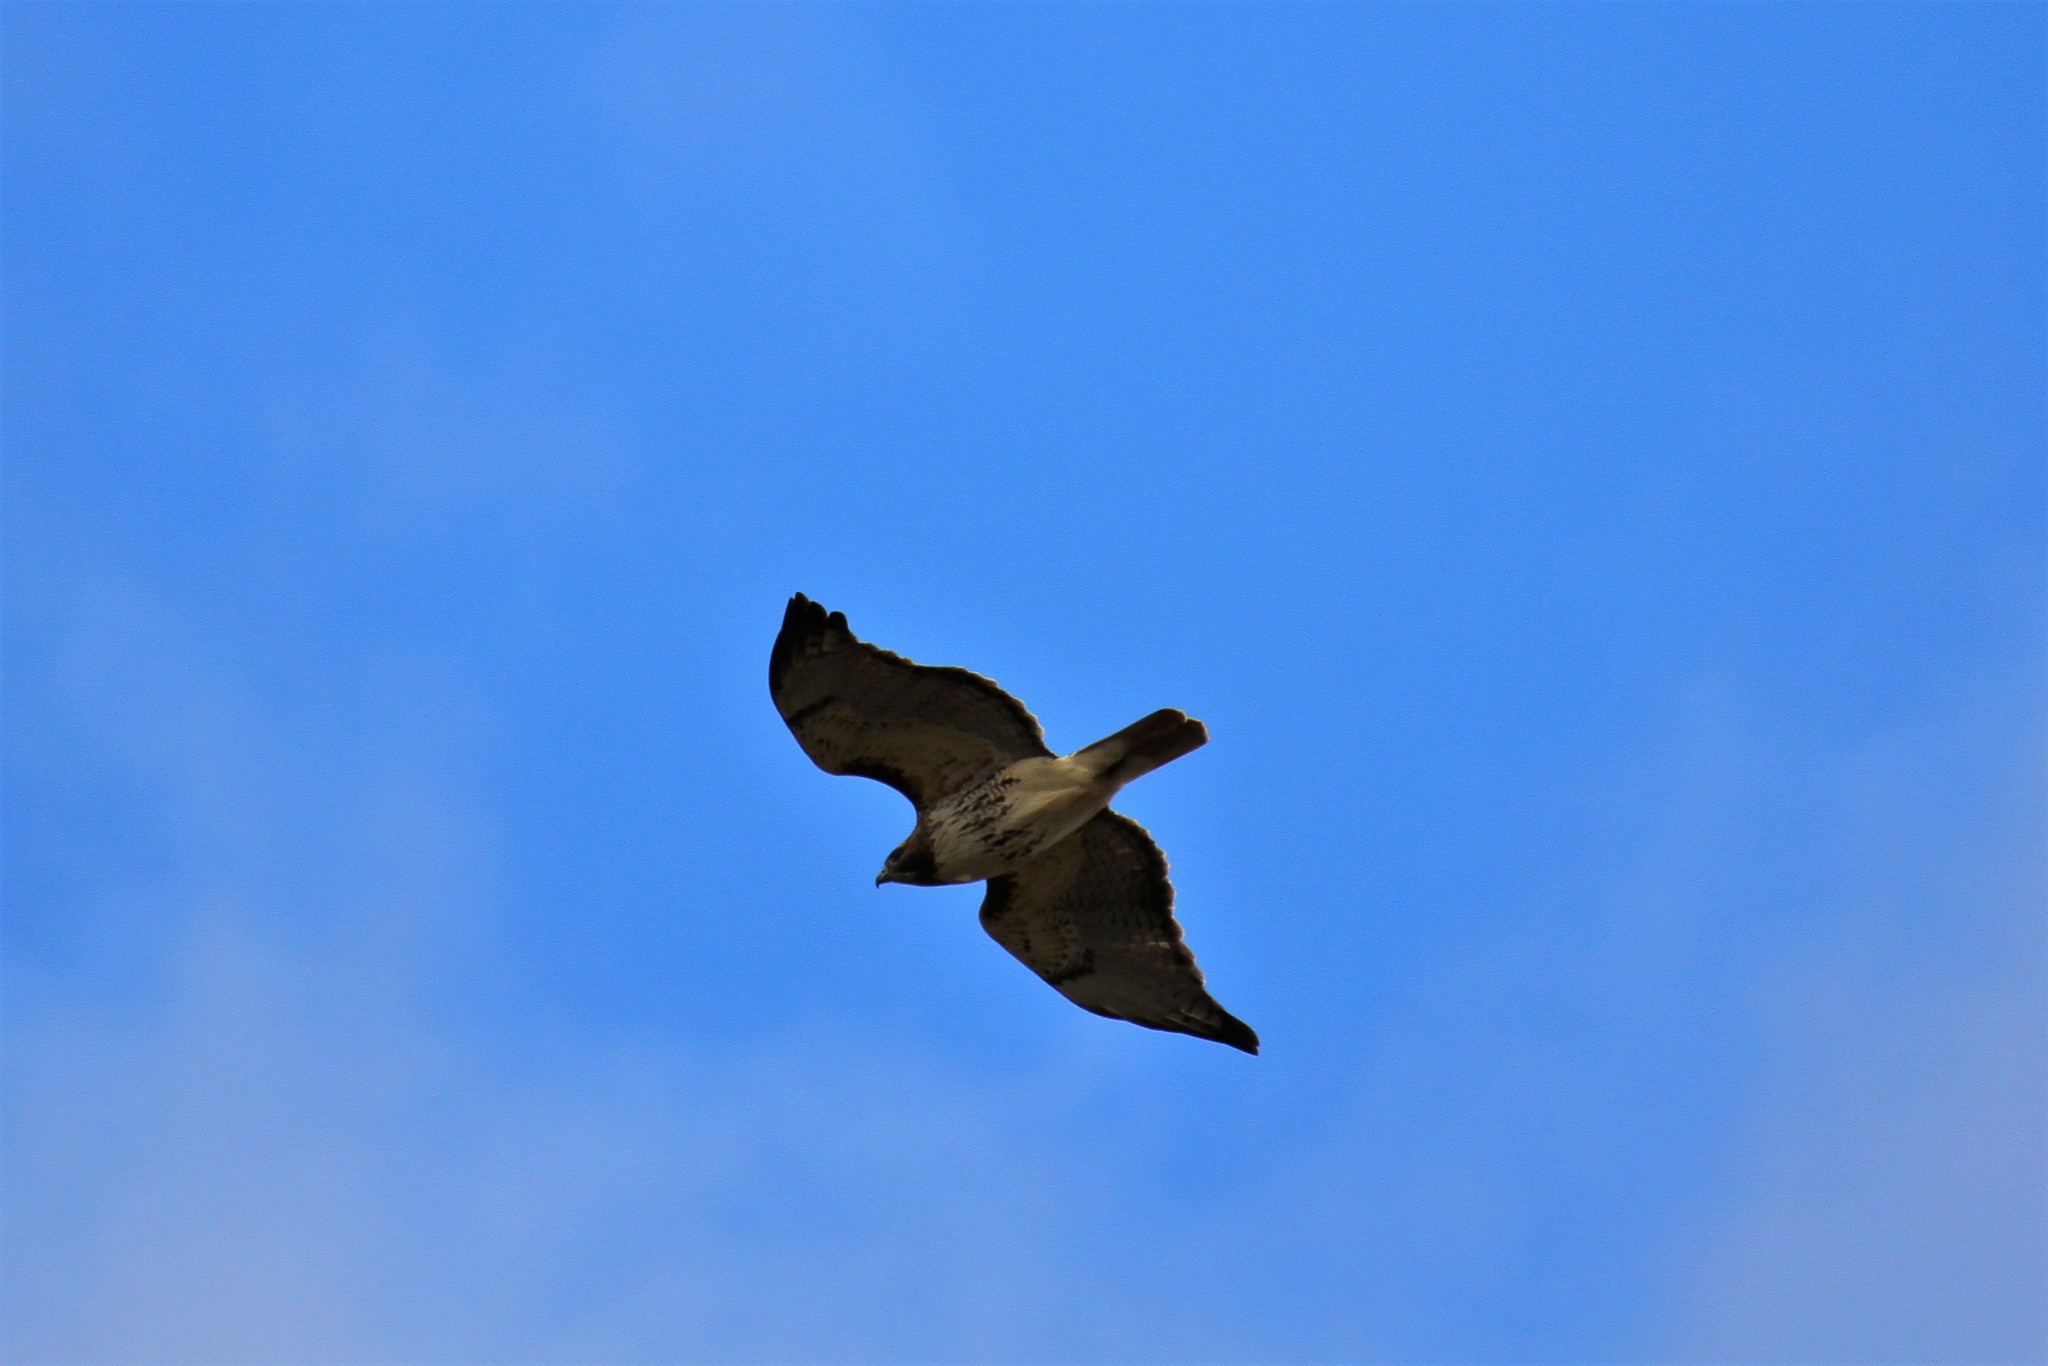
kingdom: Animalia
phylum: Chordata
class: Aves
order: Accipitriformes
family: Accipitridae
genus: Buteo
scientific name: Buteo jamaicensis
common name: Red-tailed hawk
